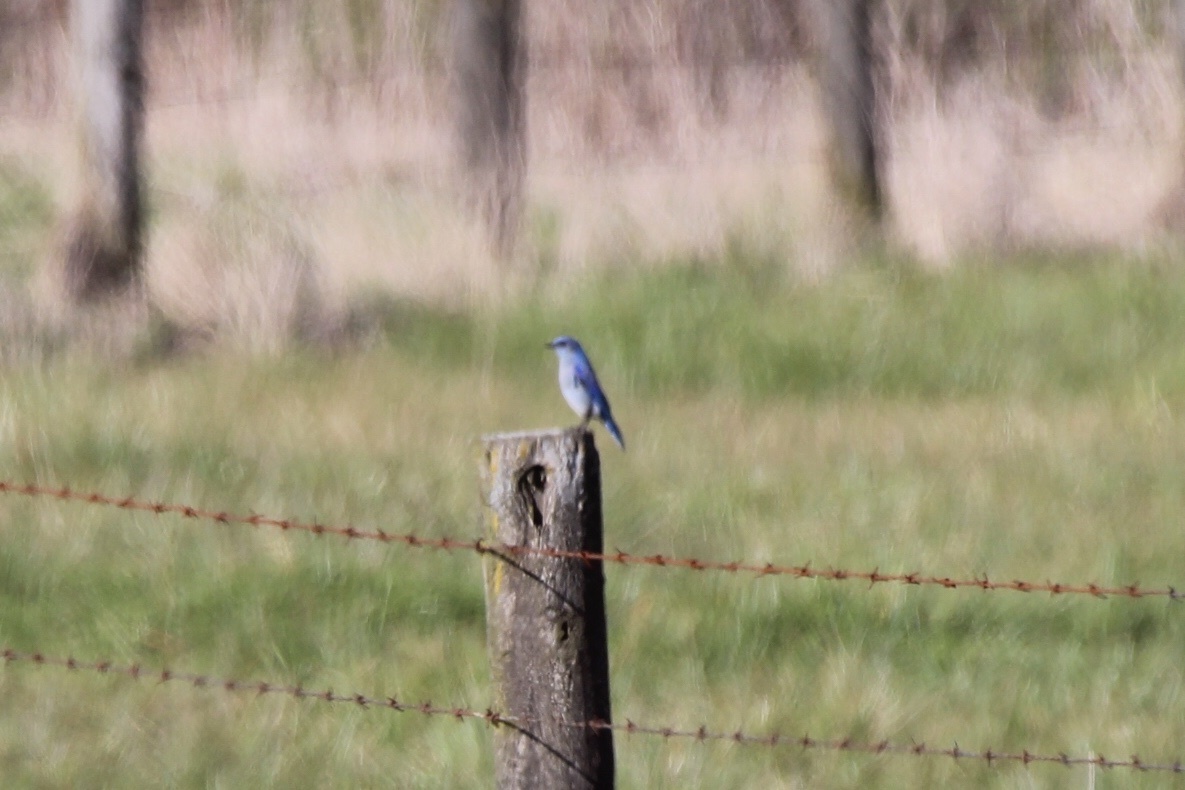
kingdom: Animalia
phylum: Chordata
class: Aves
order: Passeriformes
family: Turdidae
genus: Sialia
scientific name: Sialia currucoides
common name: Mountain bluebird
